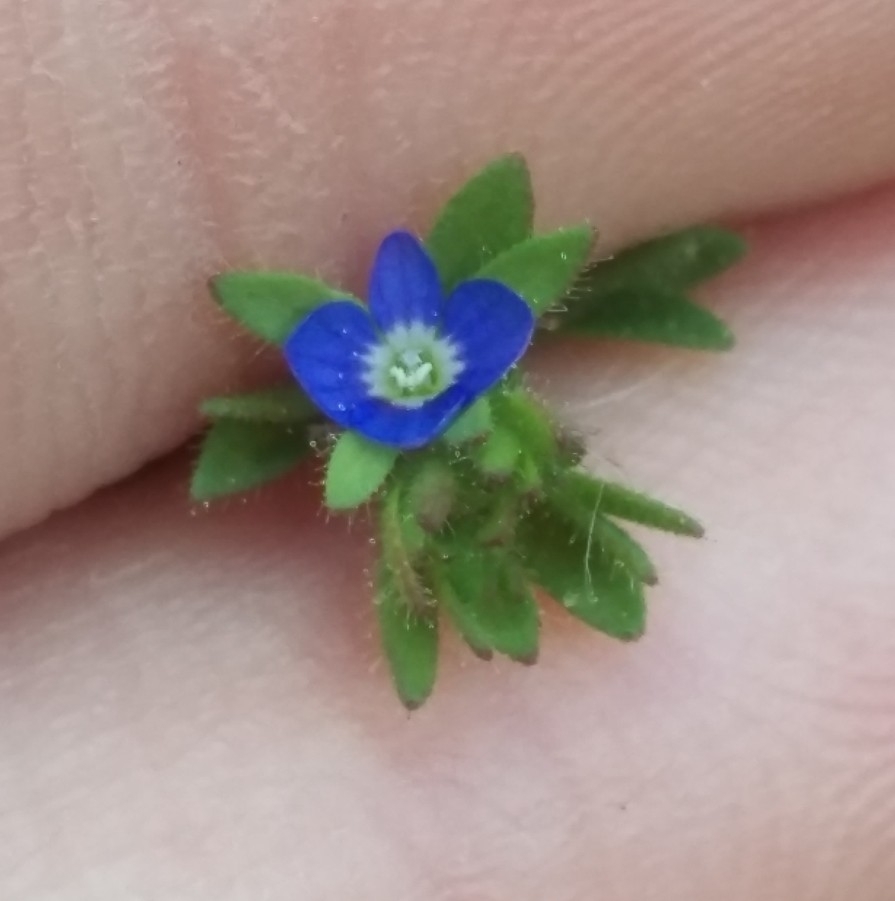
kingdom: Plantae
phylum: Tracheophyta
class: Magnoliopsida
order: Lamiales
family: Plantaginaceae
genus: Veronica
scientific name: Veronica arvensis
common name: Corn speedwell
